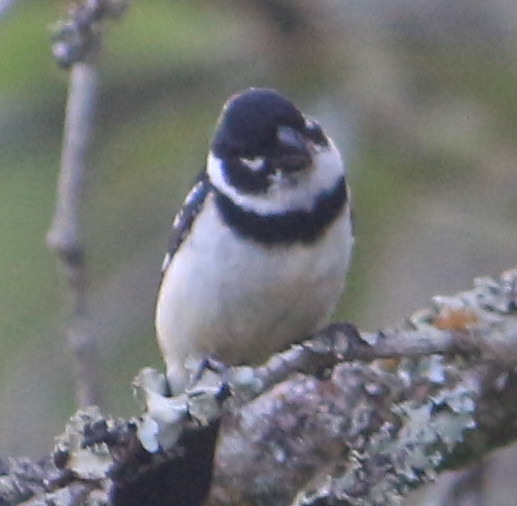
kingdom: Animalia
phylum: Chordata
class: Aves
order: Passeriformes
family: Thraupidae
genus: Sporophila
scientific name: Sporophila morelleti
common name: Morelet's seedeater
